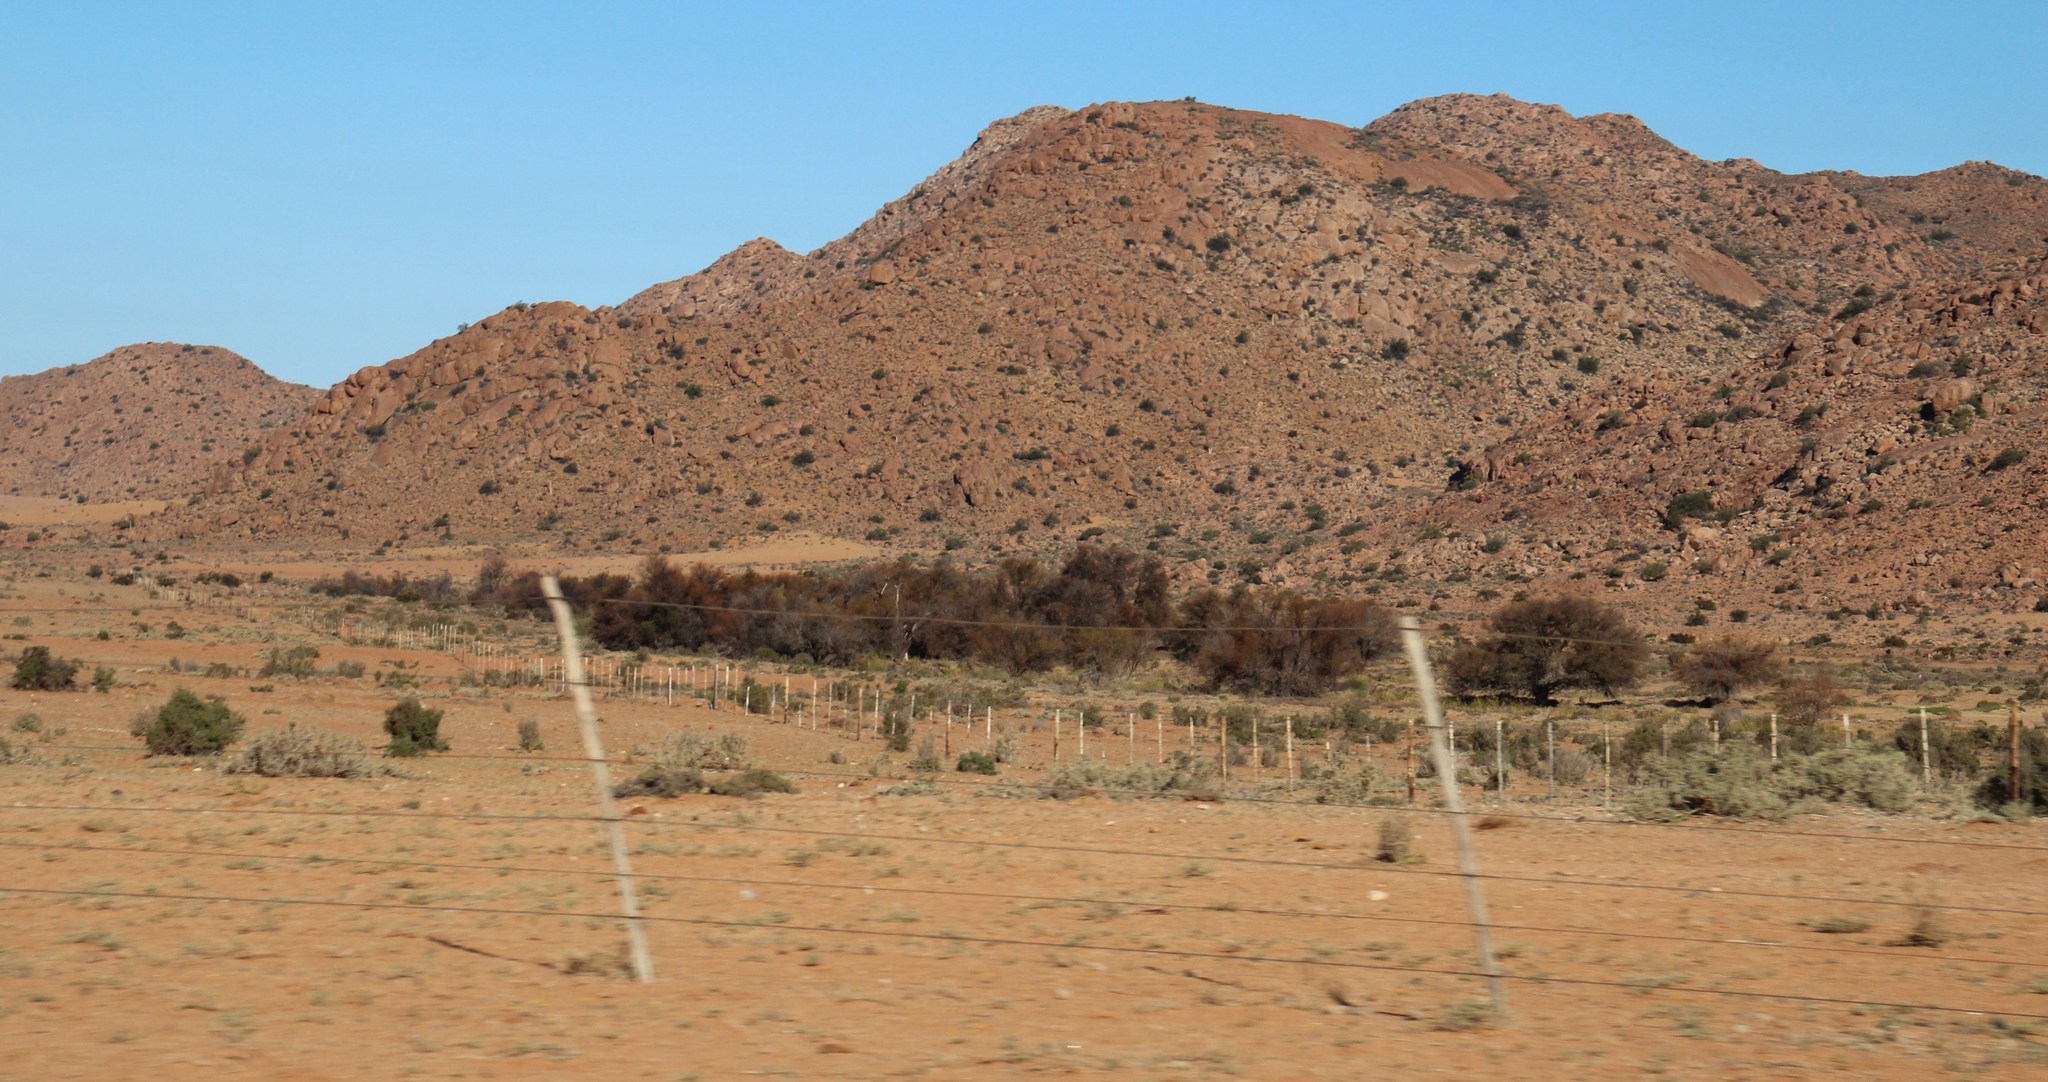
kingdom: Plantae
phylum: Tracheophyta
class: Magnoliopsida
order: Fabales
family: Fabaceae
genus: Vachellia
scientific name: Vachellia karroo
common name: Sweet thorn
